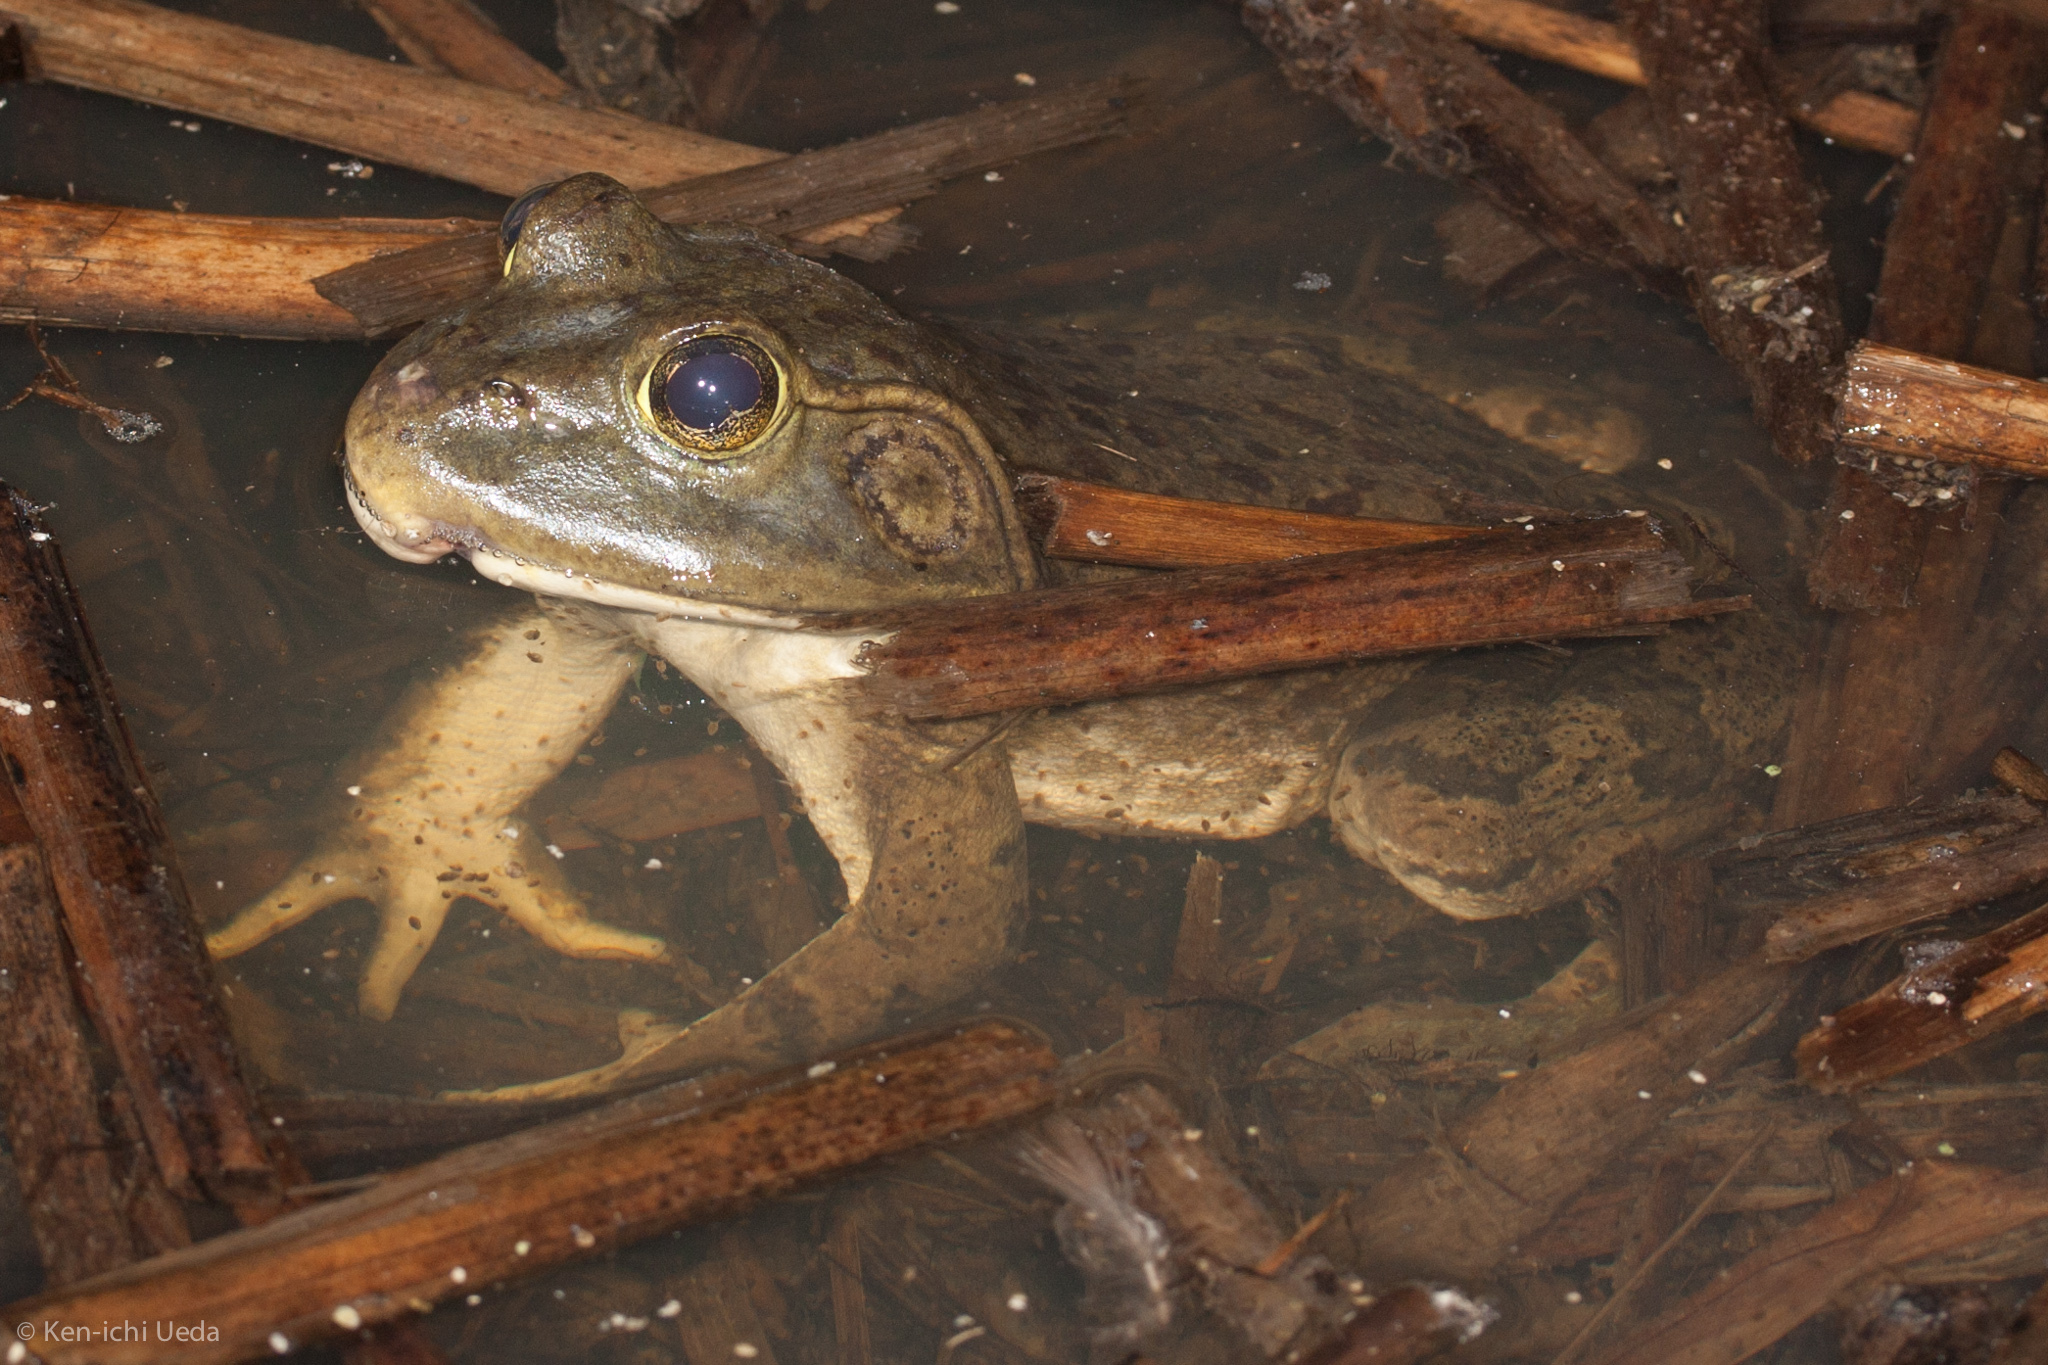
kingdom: Animalia
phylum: Chordata
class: Amphibia
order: Anura
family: Ranidae
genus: Lithobates
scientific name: Lithobates catesbeianus
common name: American bullfrog
